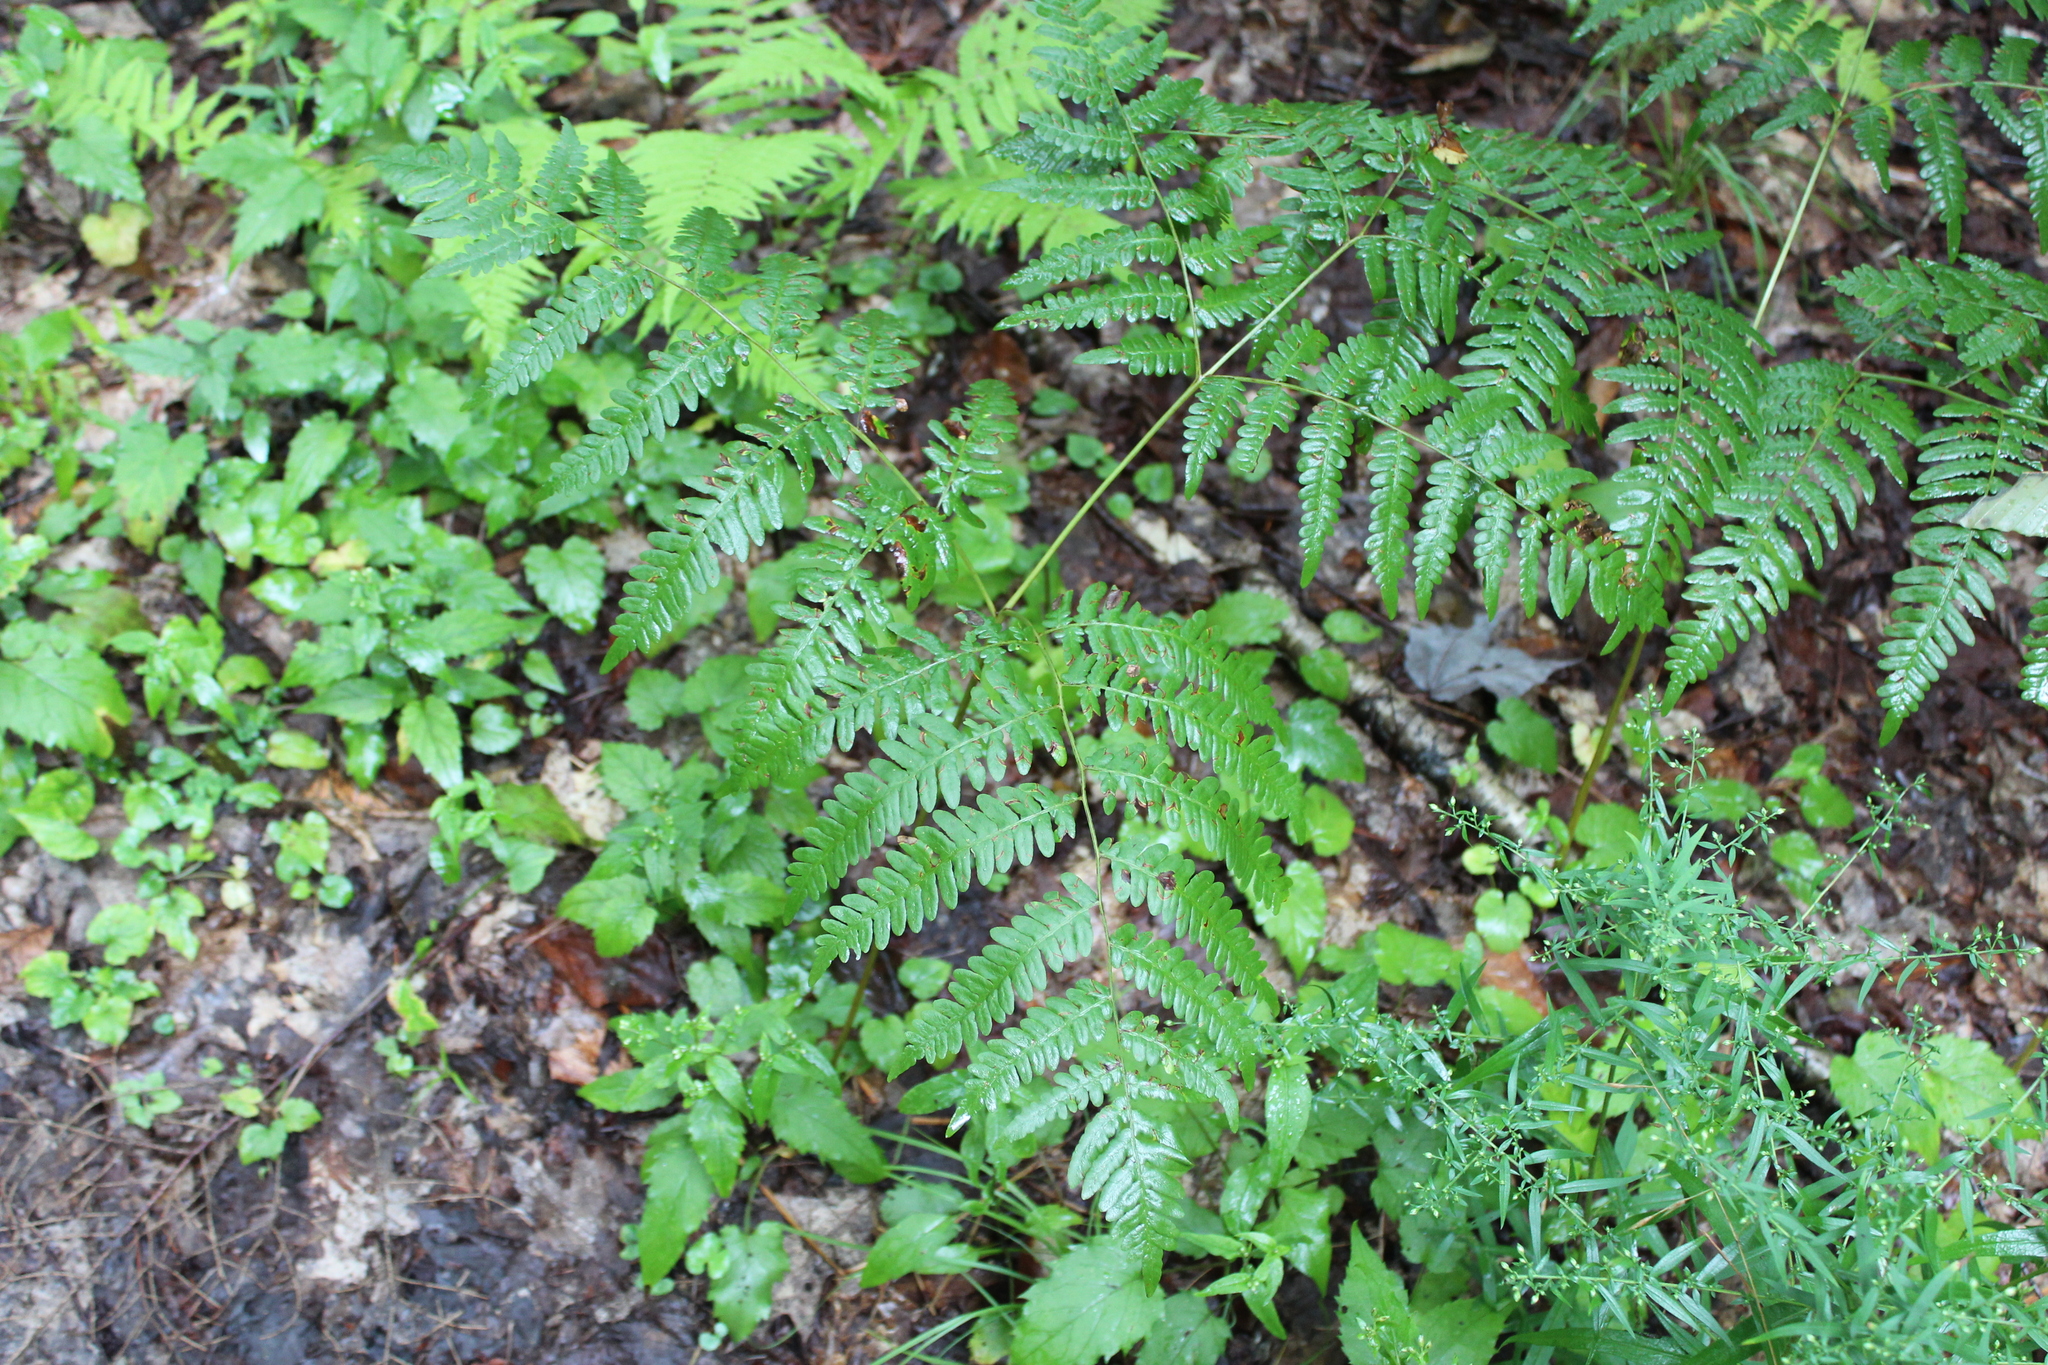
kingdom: Plantae
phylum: Tracheophyta
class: Polypodiopsida
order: Polypodiales
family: Dennstaedtiaceae
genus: Pteridium
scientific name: Pteridium aquilinum
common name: Bracken
